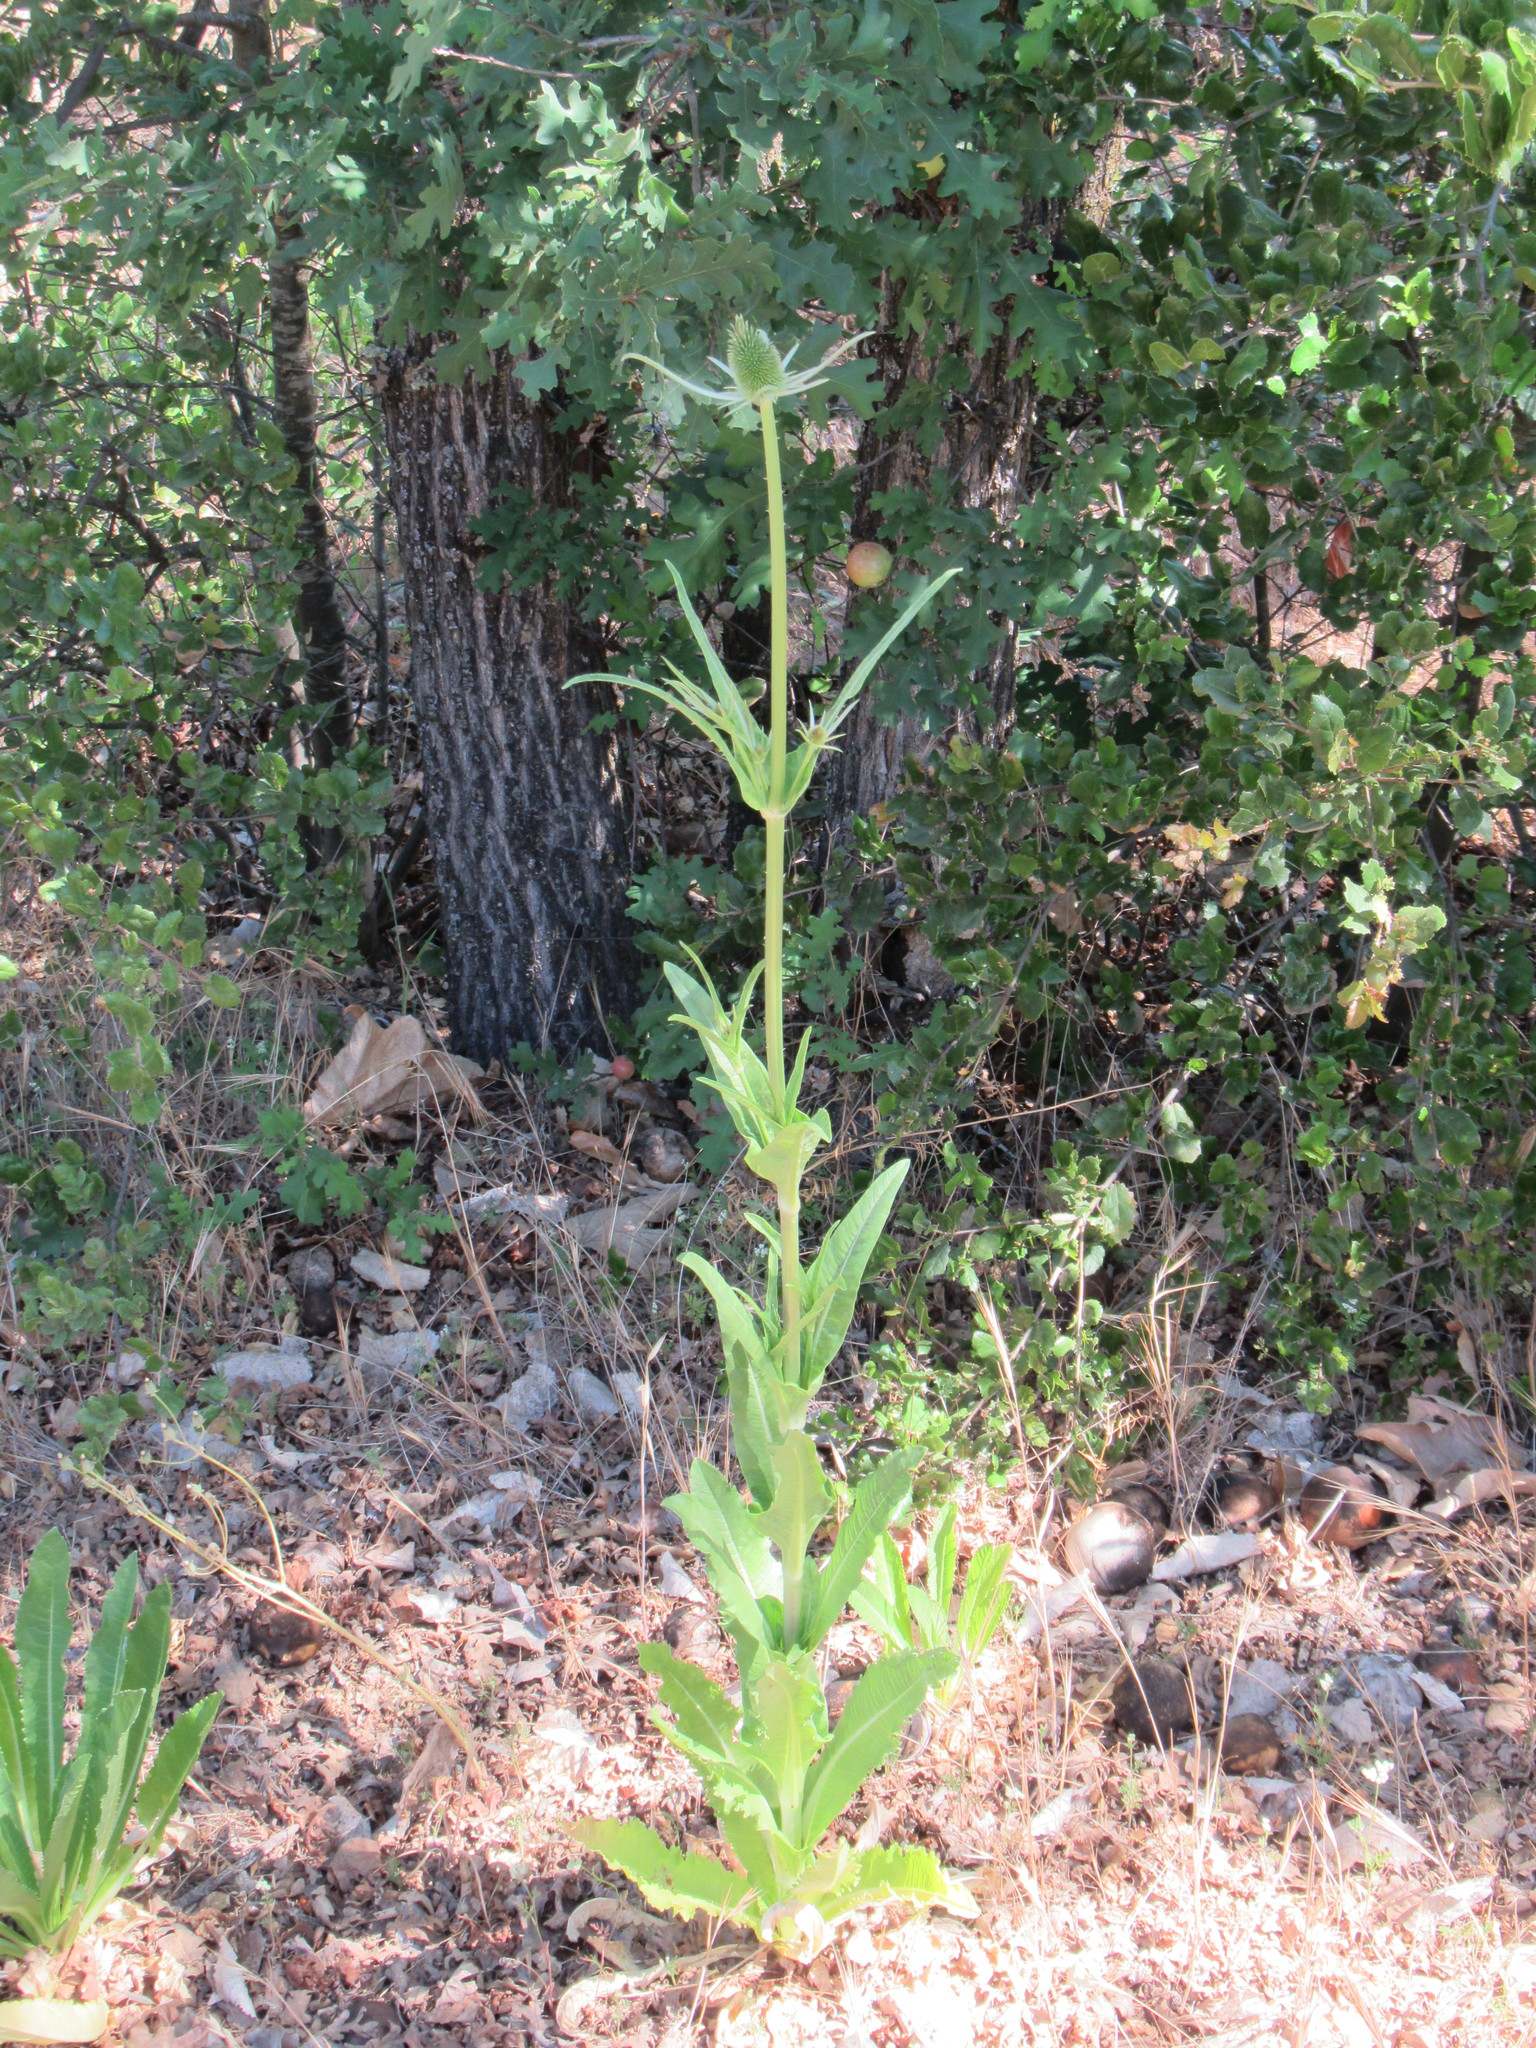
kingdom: Plantae
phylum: Tracheophyta
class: Magnoliopsida
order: Dipsacales
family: Caprifoliaceae
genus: Dipsacus
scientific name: Dipsacus sativus
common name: Fuller's teasel
